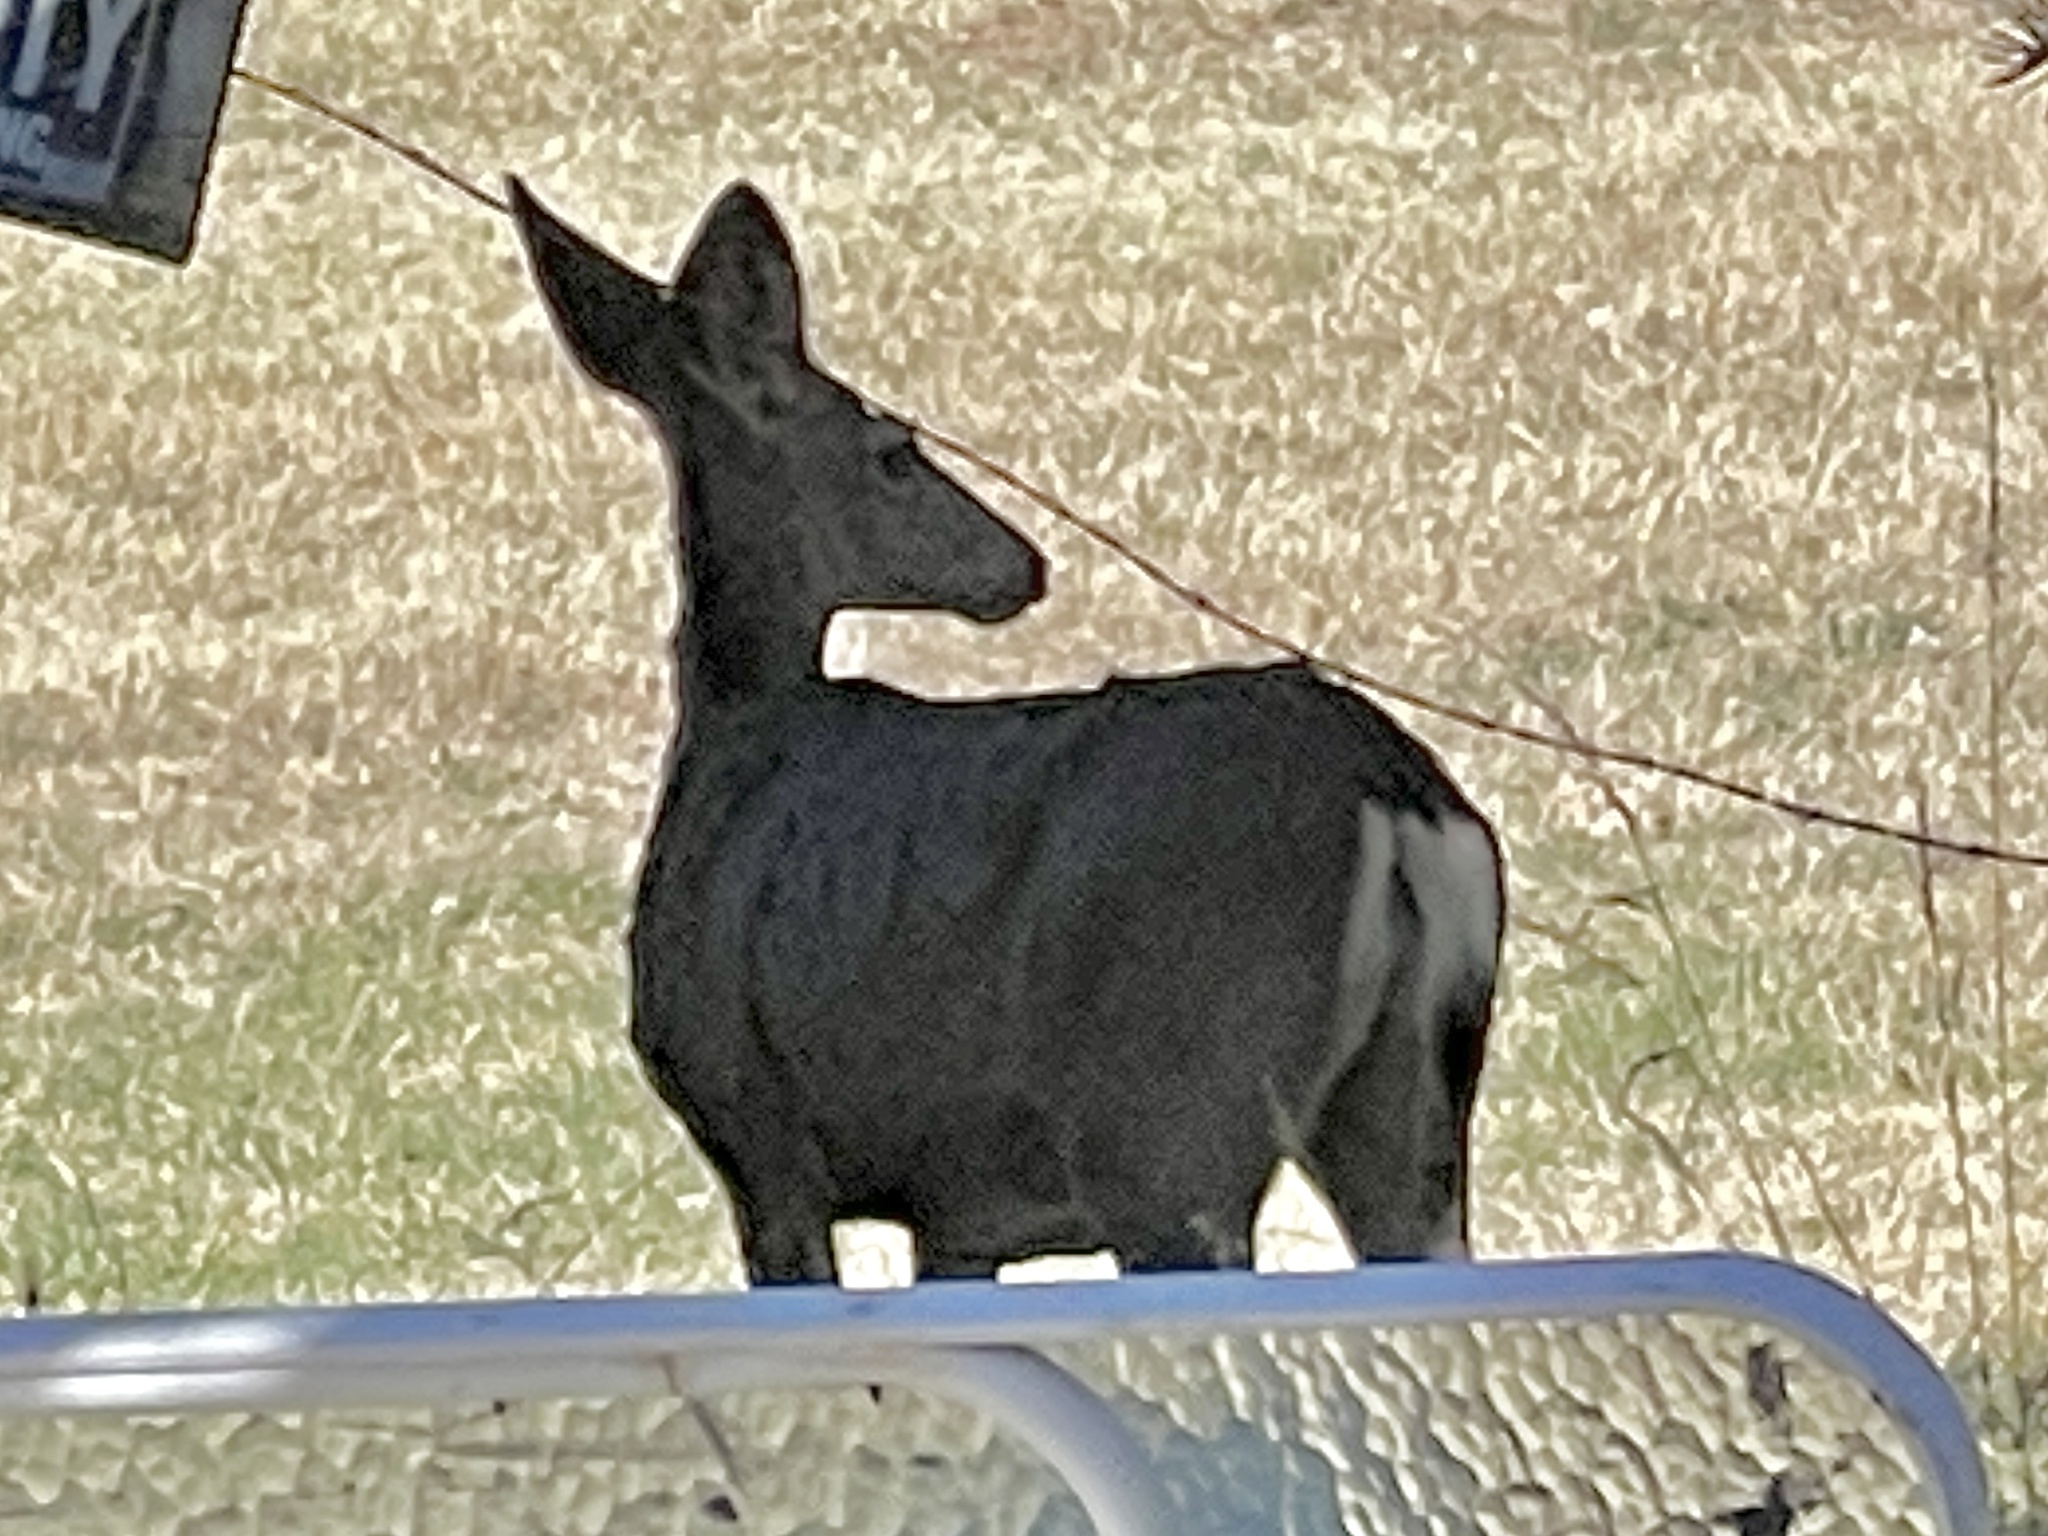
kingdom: Animalia
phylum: Chordata
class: Mammalia
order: Artiodactyla
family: Cervidae
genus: Odocoileus
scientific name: Odocoileus hemionus
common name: Mule deer
